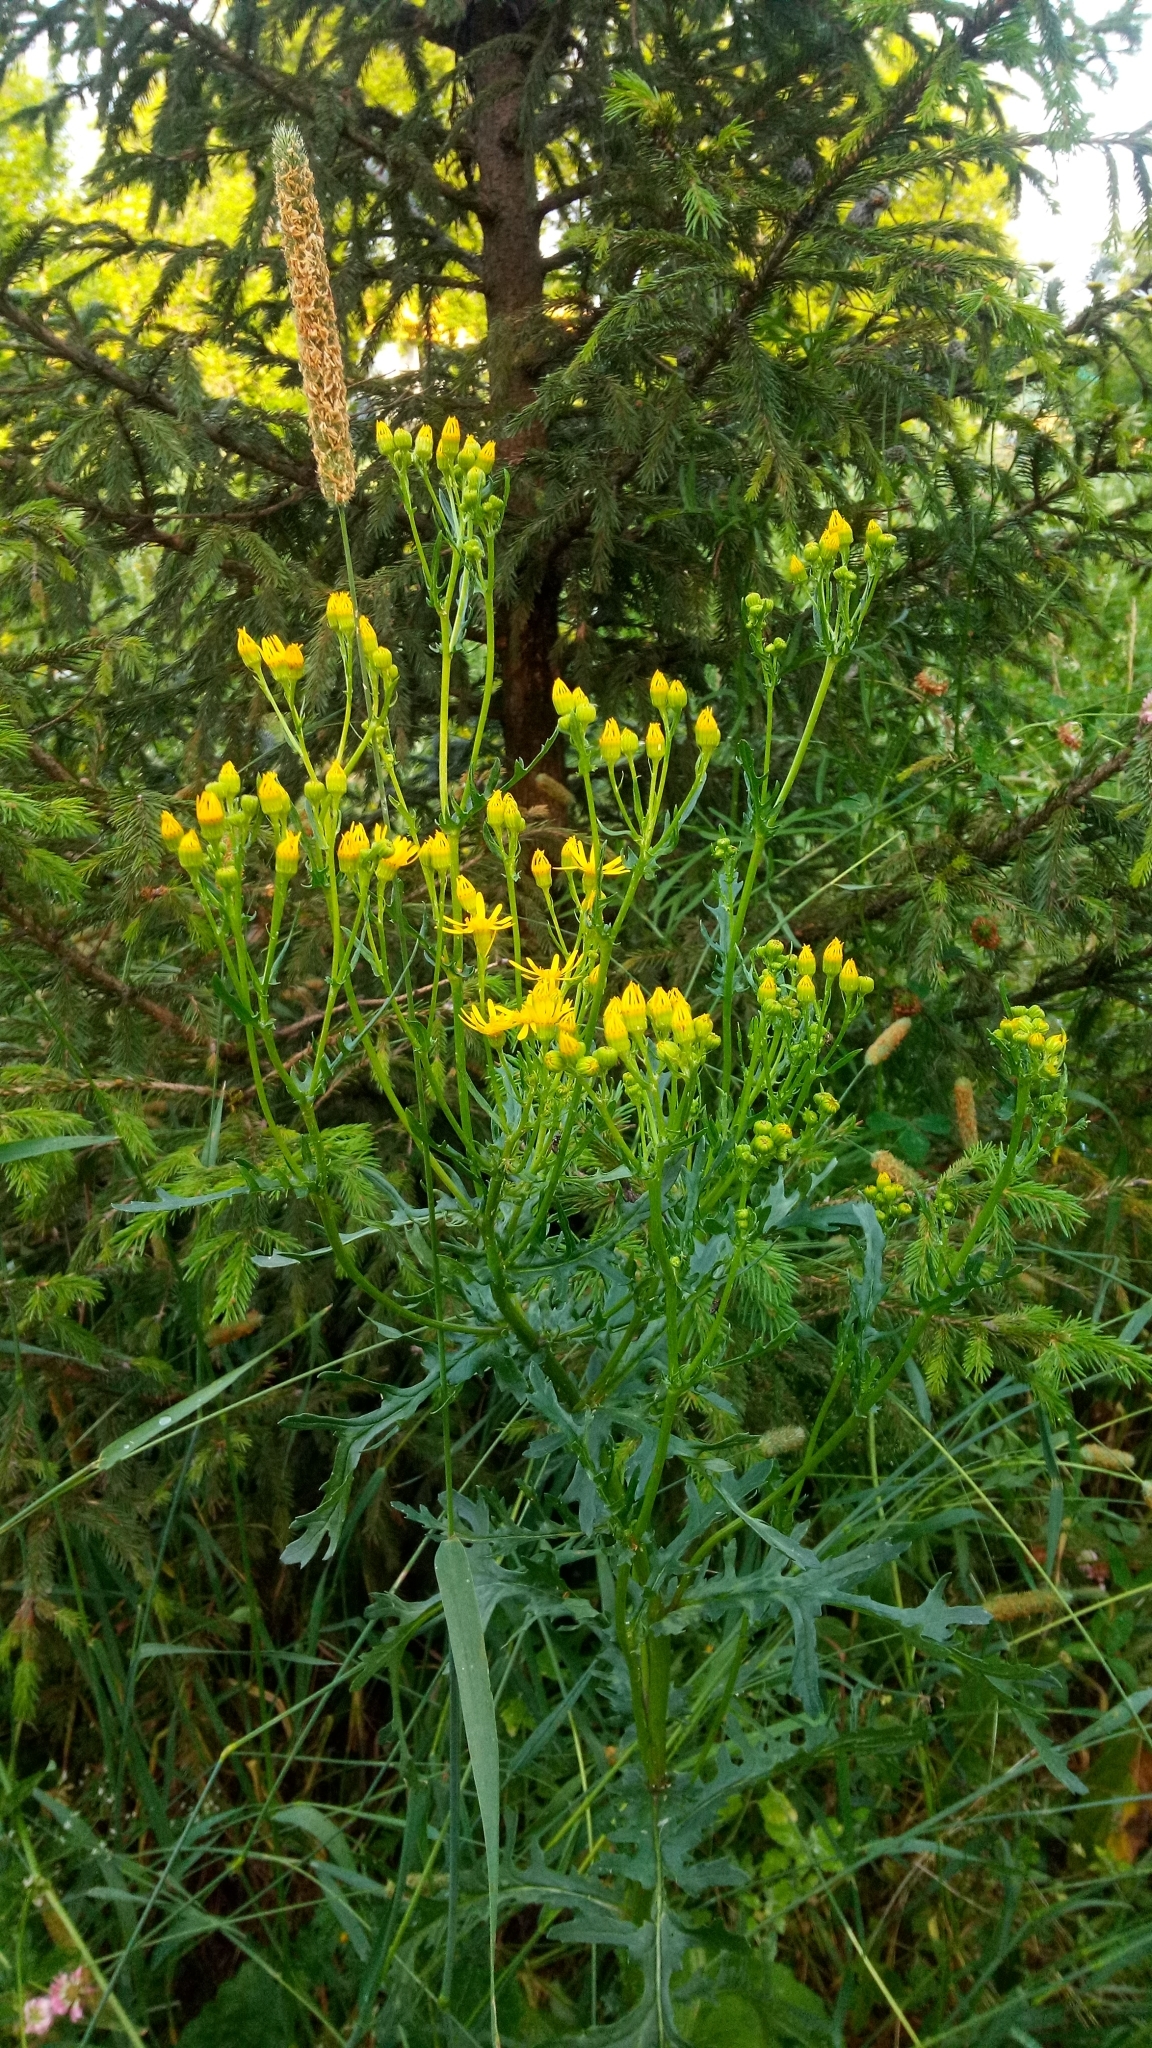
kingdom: Plantae
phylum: Tracheophyta
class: Magnoliopsida
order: Asterales
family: Asteraceae
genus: Jacobaea
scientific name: Jacobaea vulgaris
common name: Stinking willie
